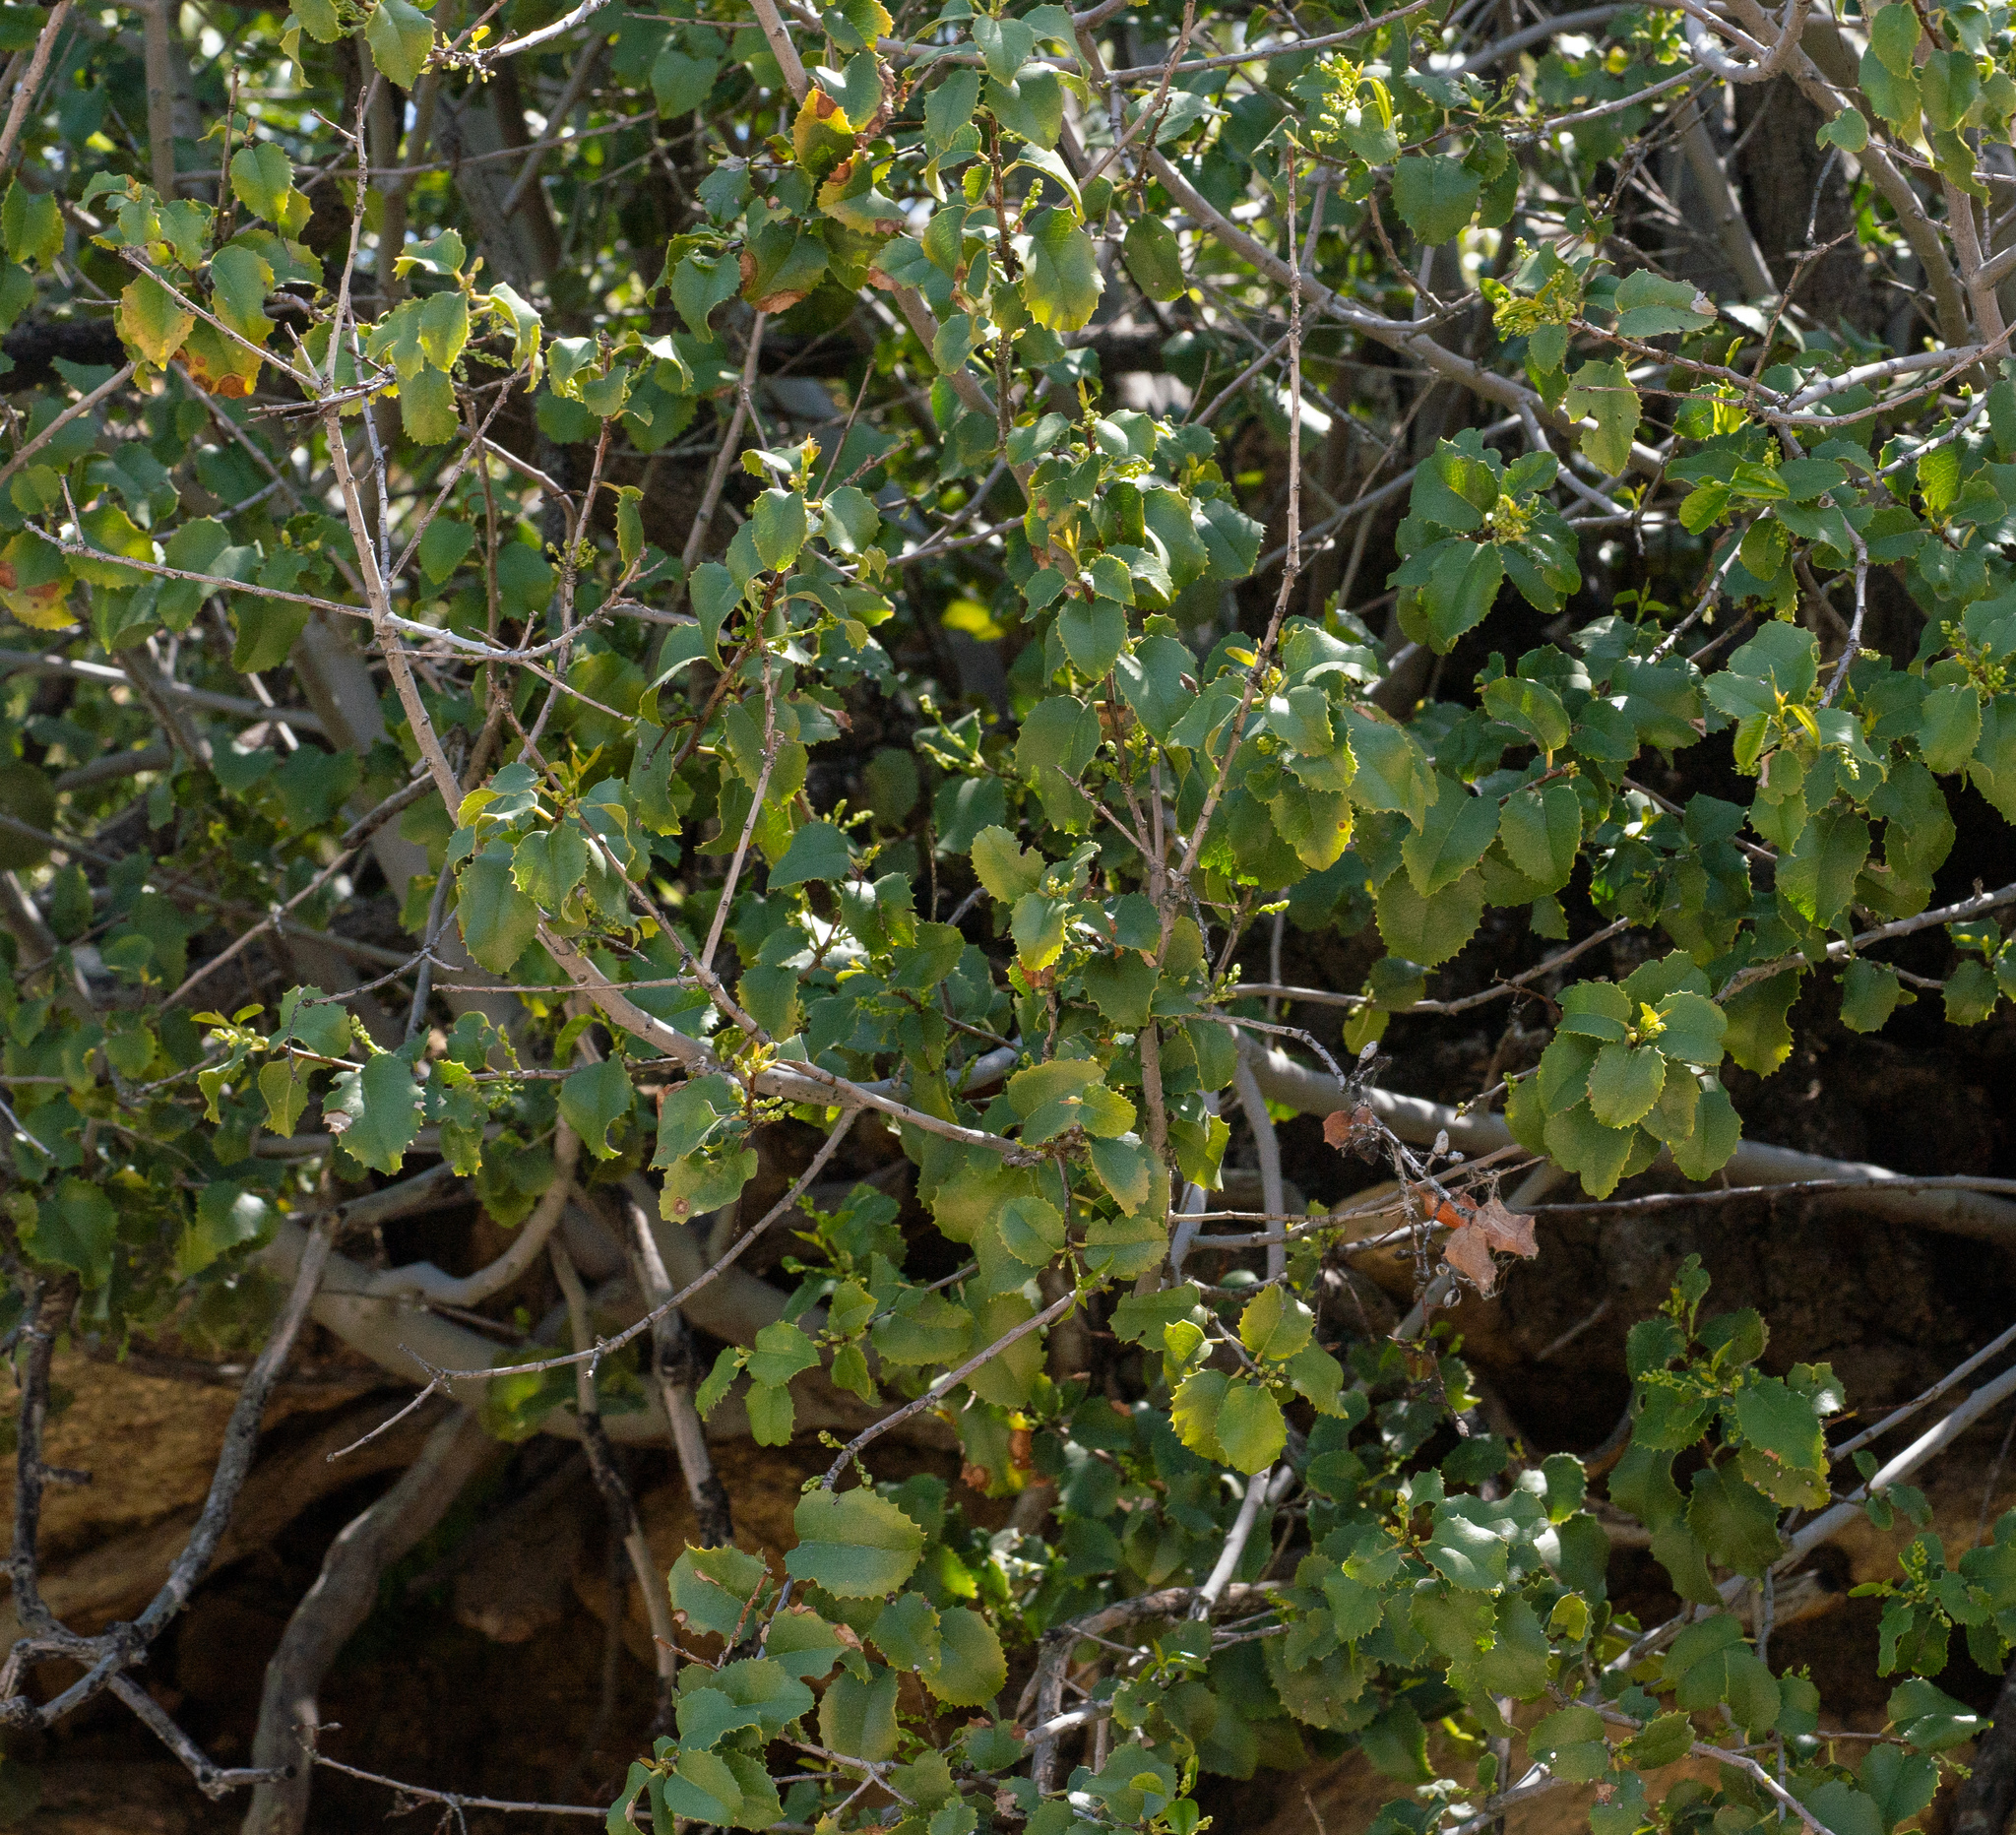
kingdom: Plantae
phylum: Tracheophyta
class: Magnoliopsida
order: Rosales
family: Rosaceae
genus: Prunus
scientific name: Prunus ilicifolia
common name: Hollyleaf cherry
